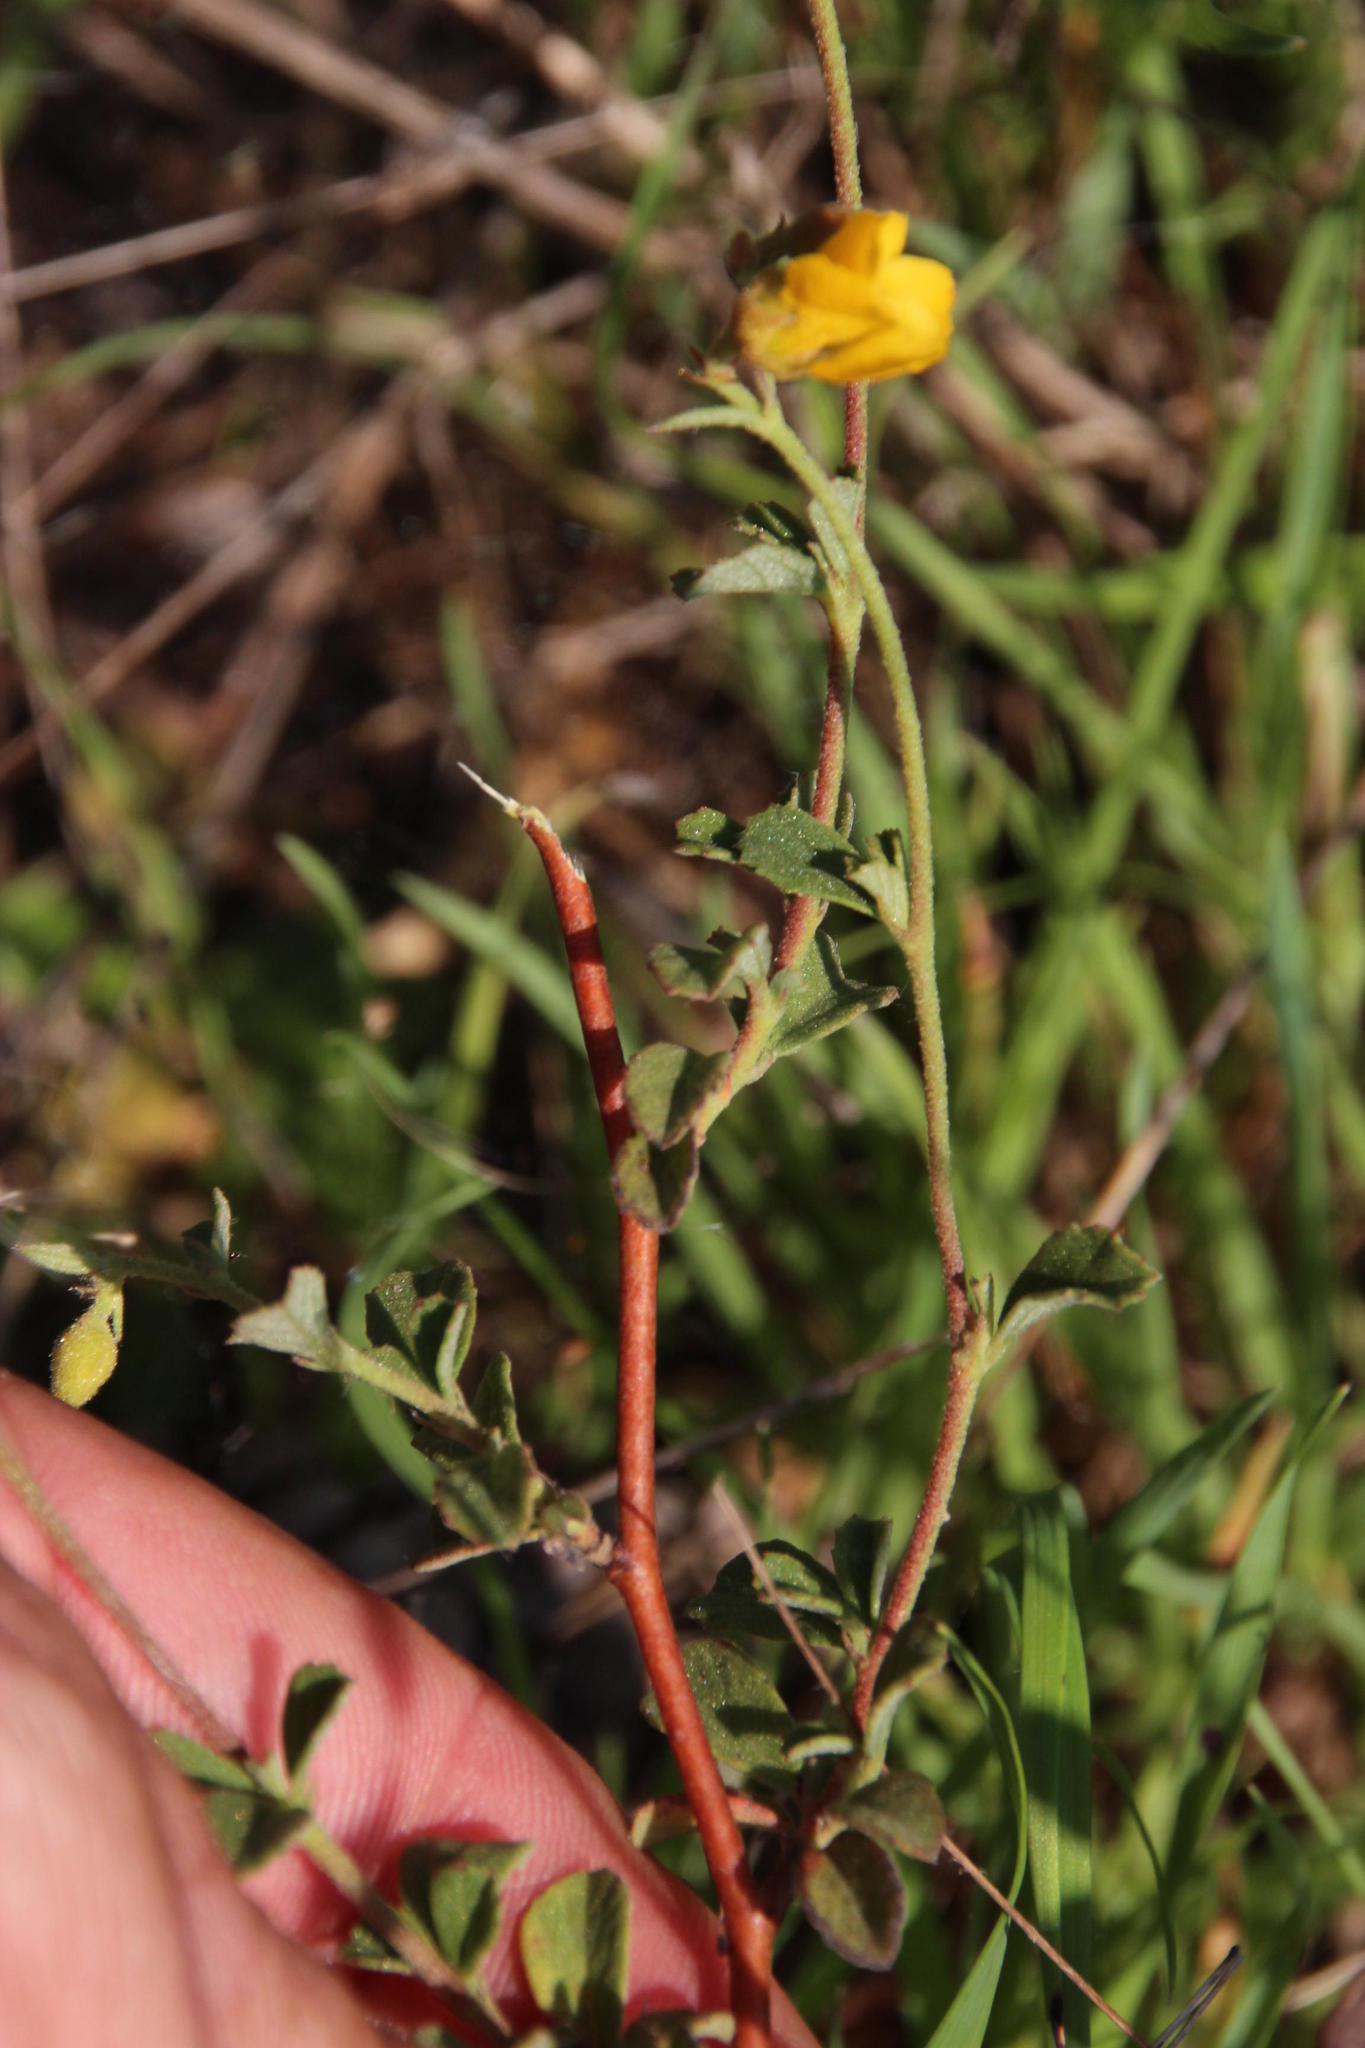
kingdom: Plantae
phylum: Tracheophyta
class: Magnoliopsida
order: Malvales
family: Malvaceae
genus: Hermannia
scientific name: Hermannia multiflora
